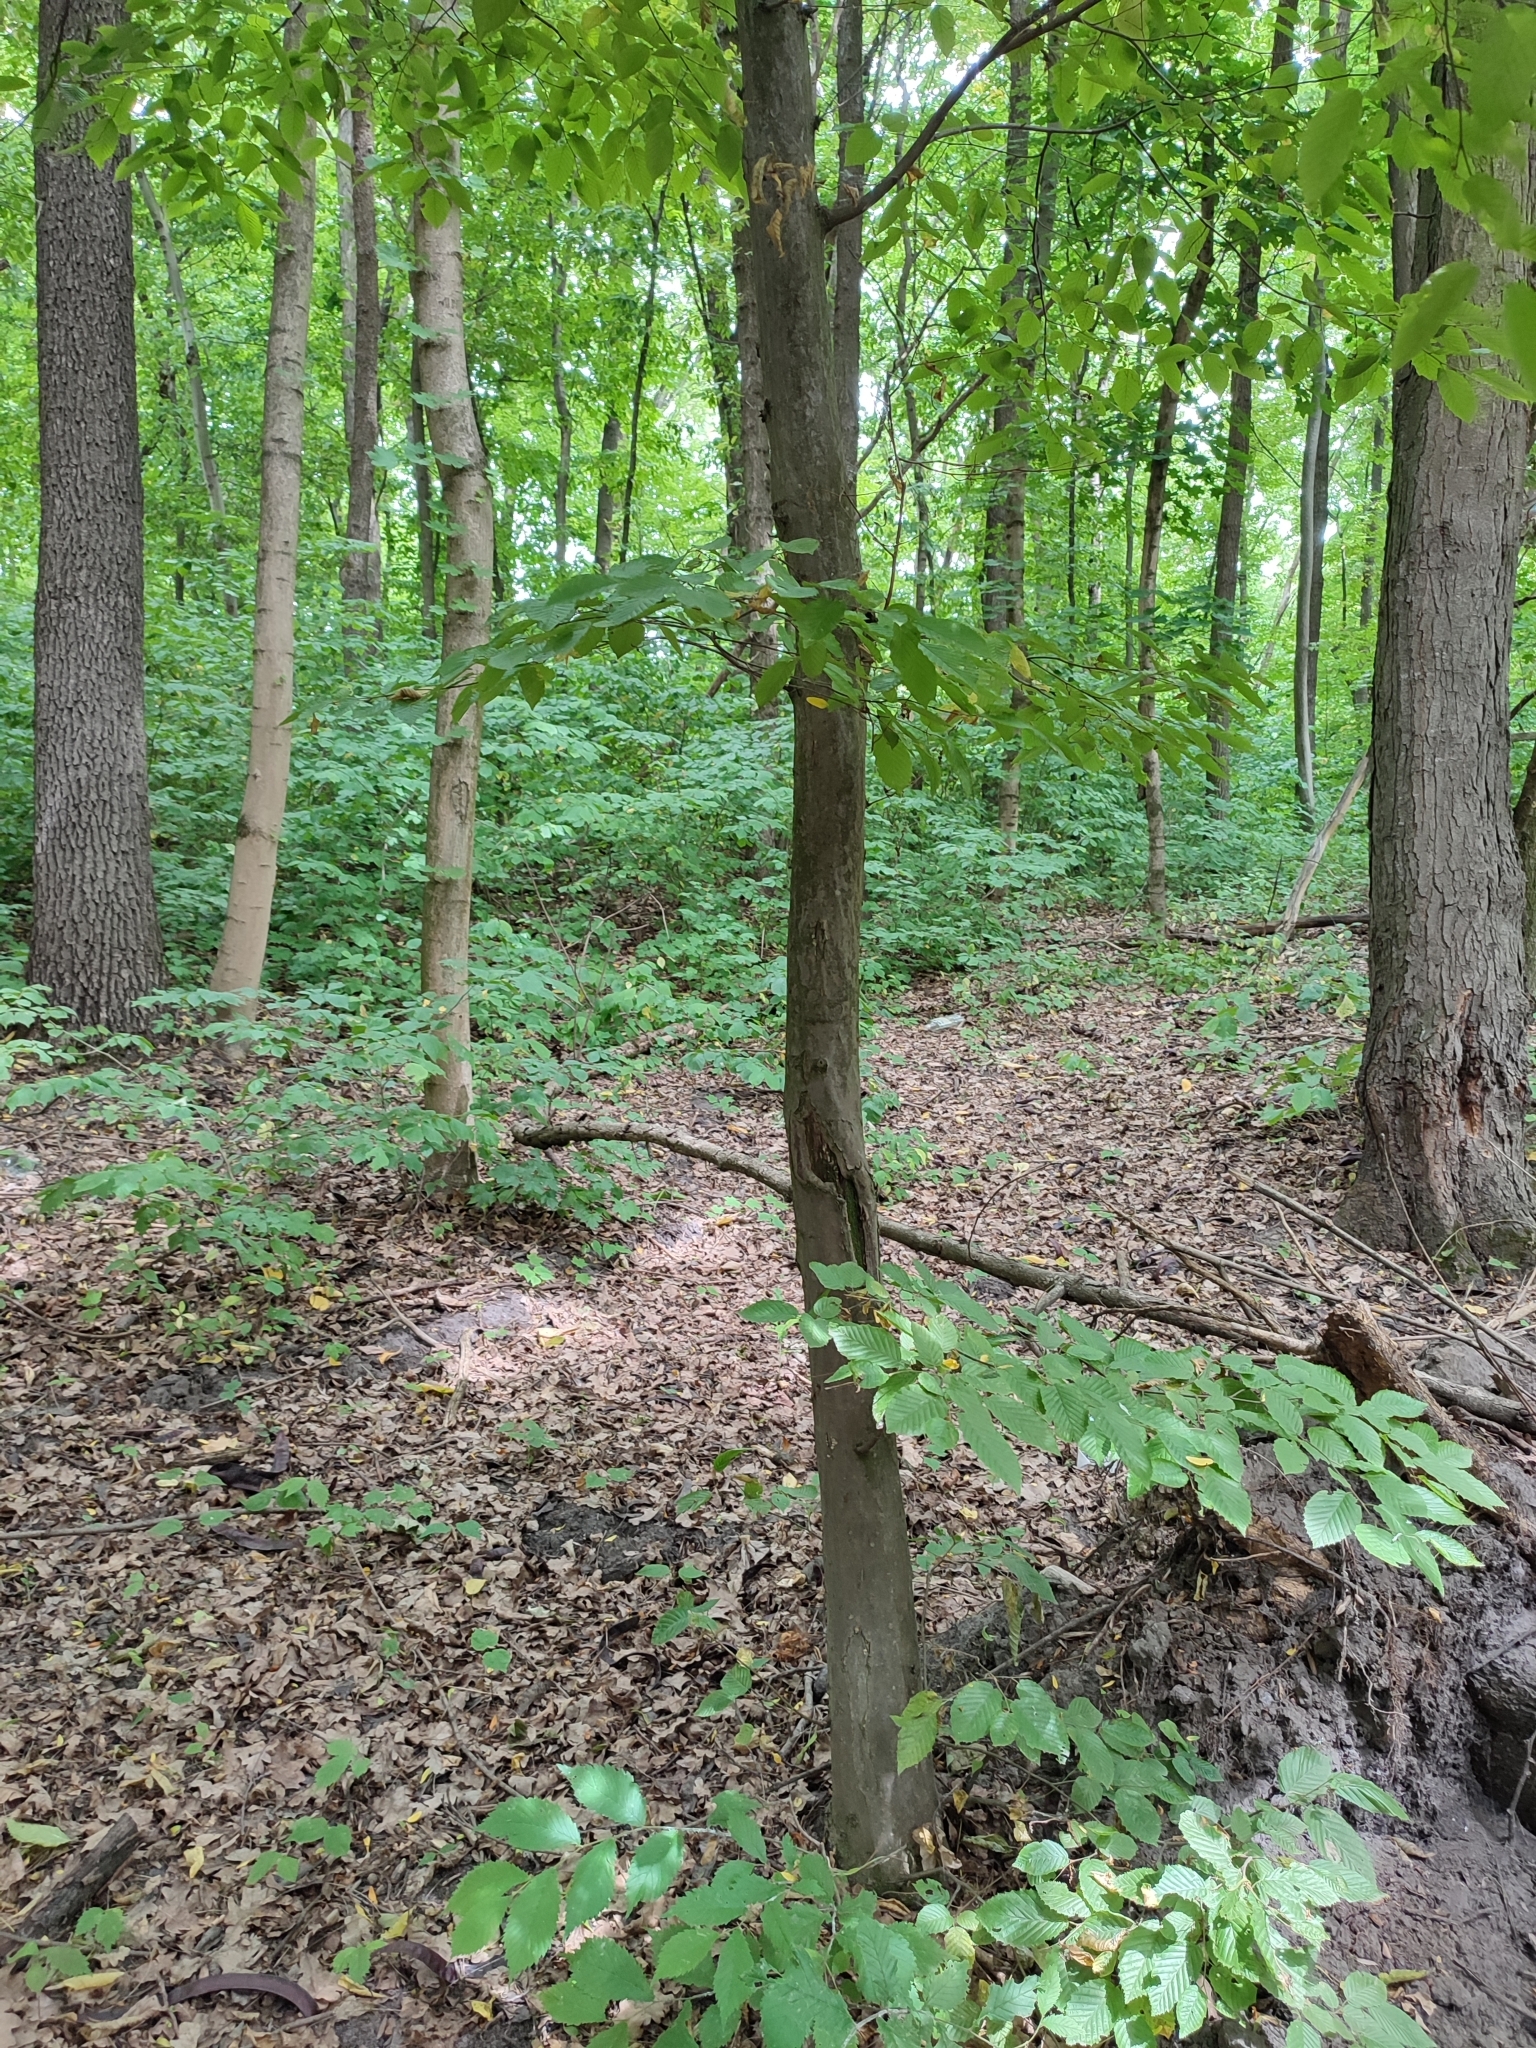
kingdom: Plantae
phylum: Tracheophyta
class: Magnoliopsida
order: Fagales
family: Betulaceae
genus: Carpinus
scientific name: Carpinus betulus
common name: Hornbeam
